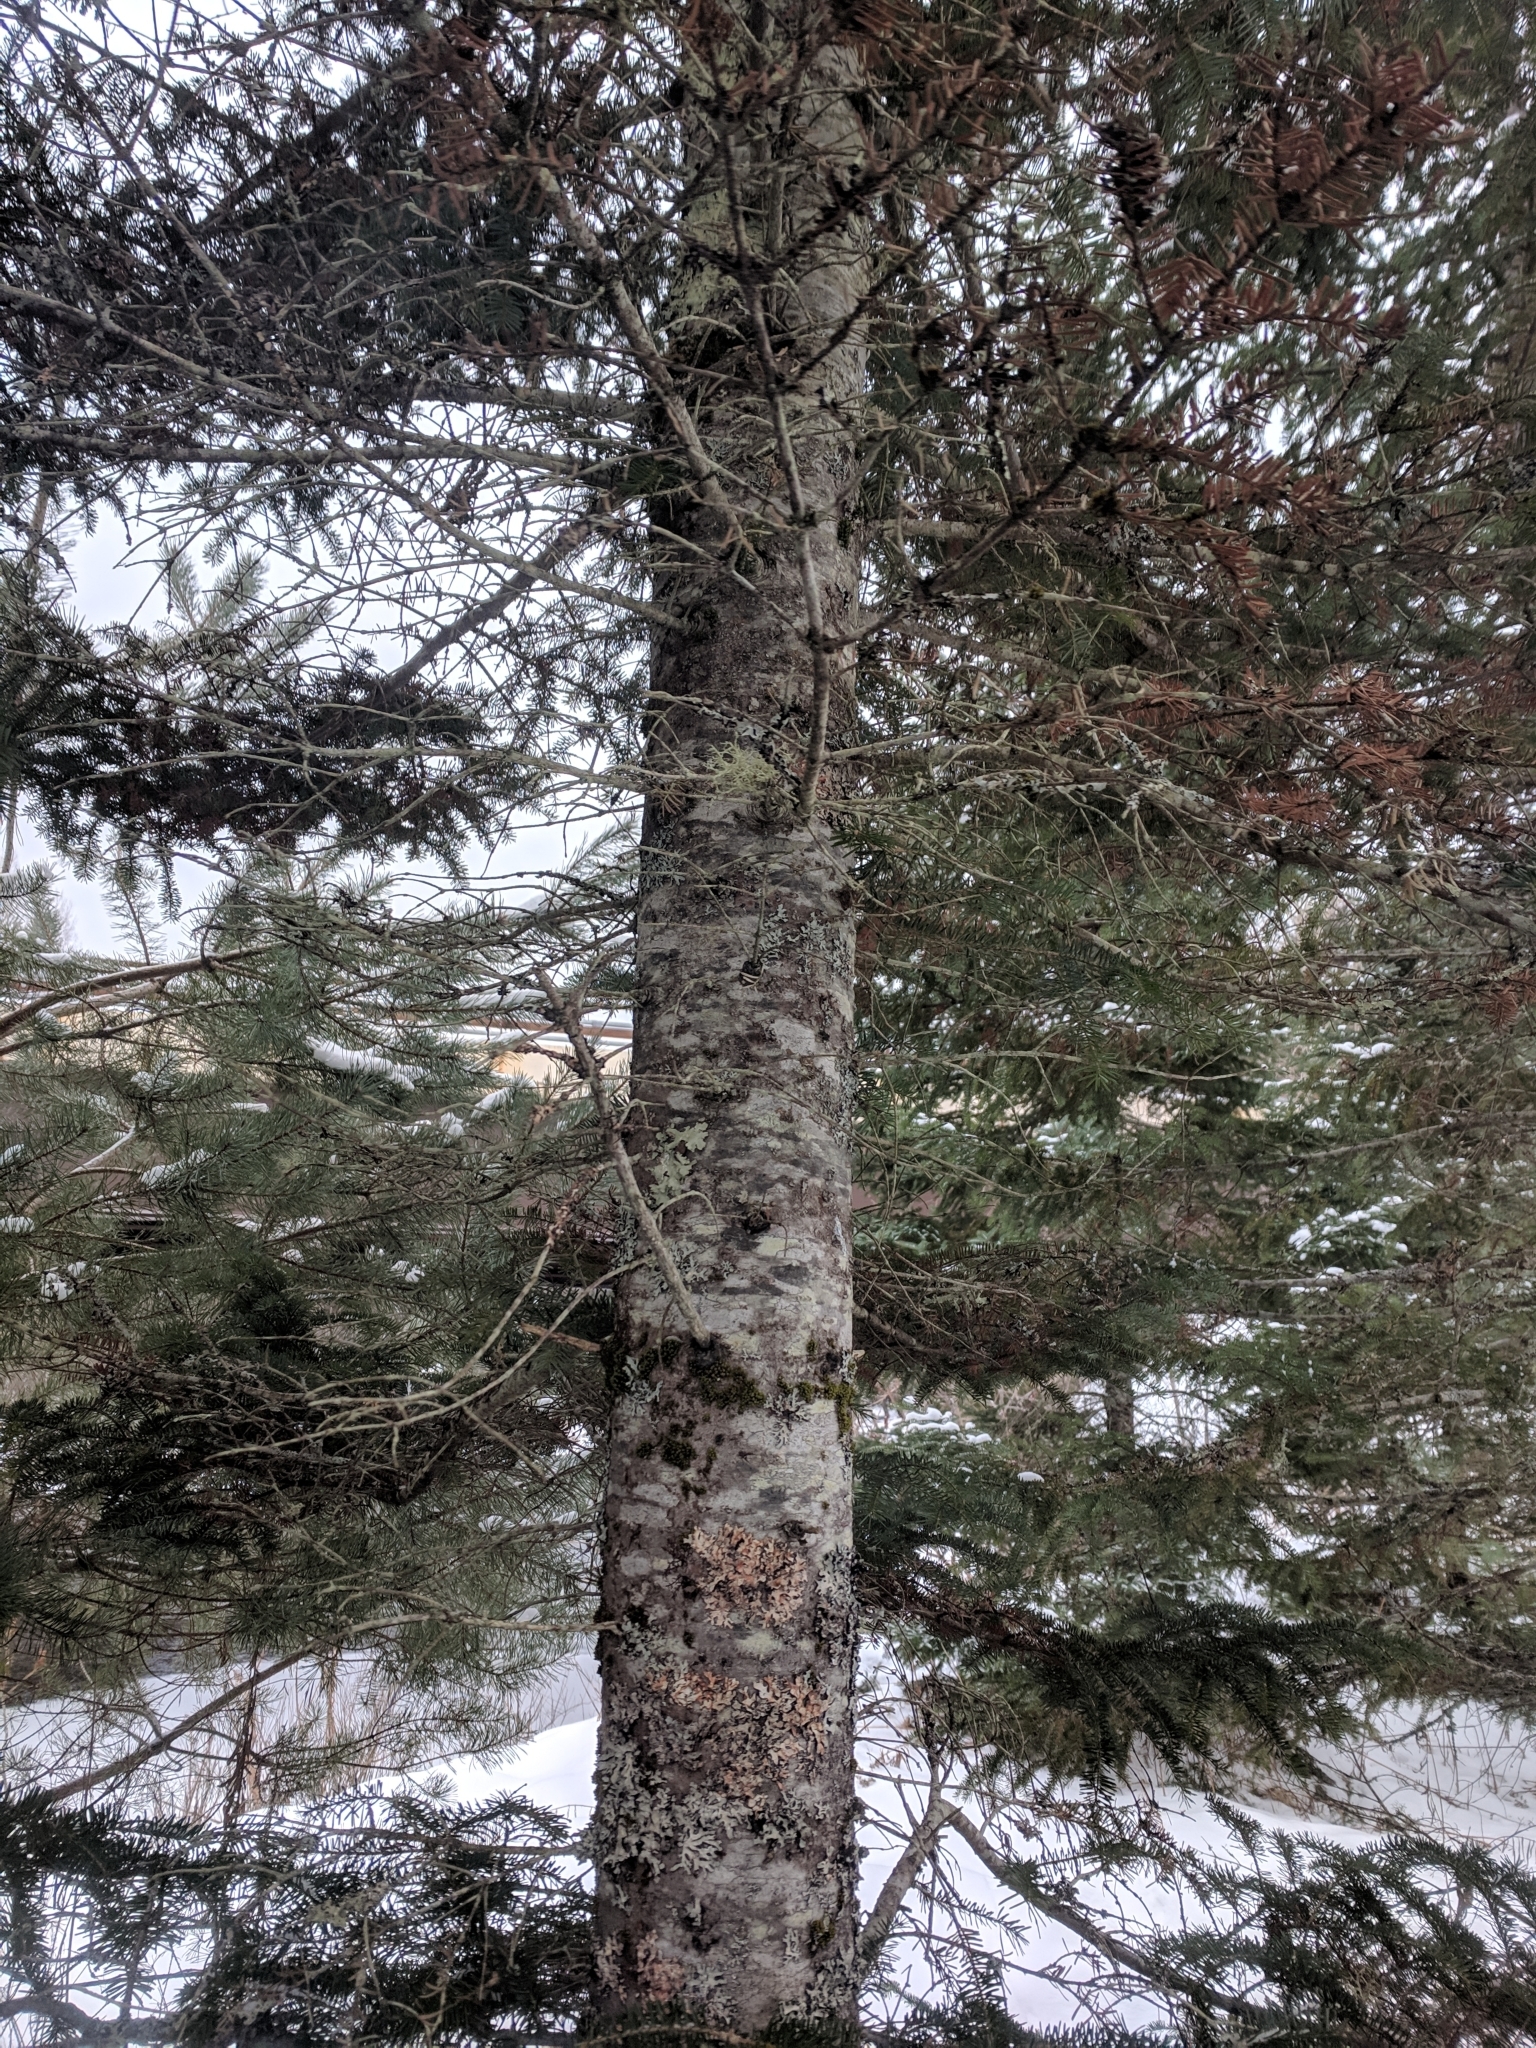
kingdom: Plantae
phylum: Tracheophyta
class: Pinopsida
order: Pinales
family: Pinaceae
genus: Abies
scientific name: Abies balsamea
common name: Balsam fir
